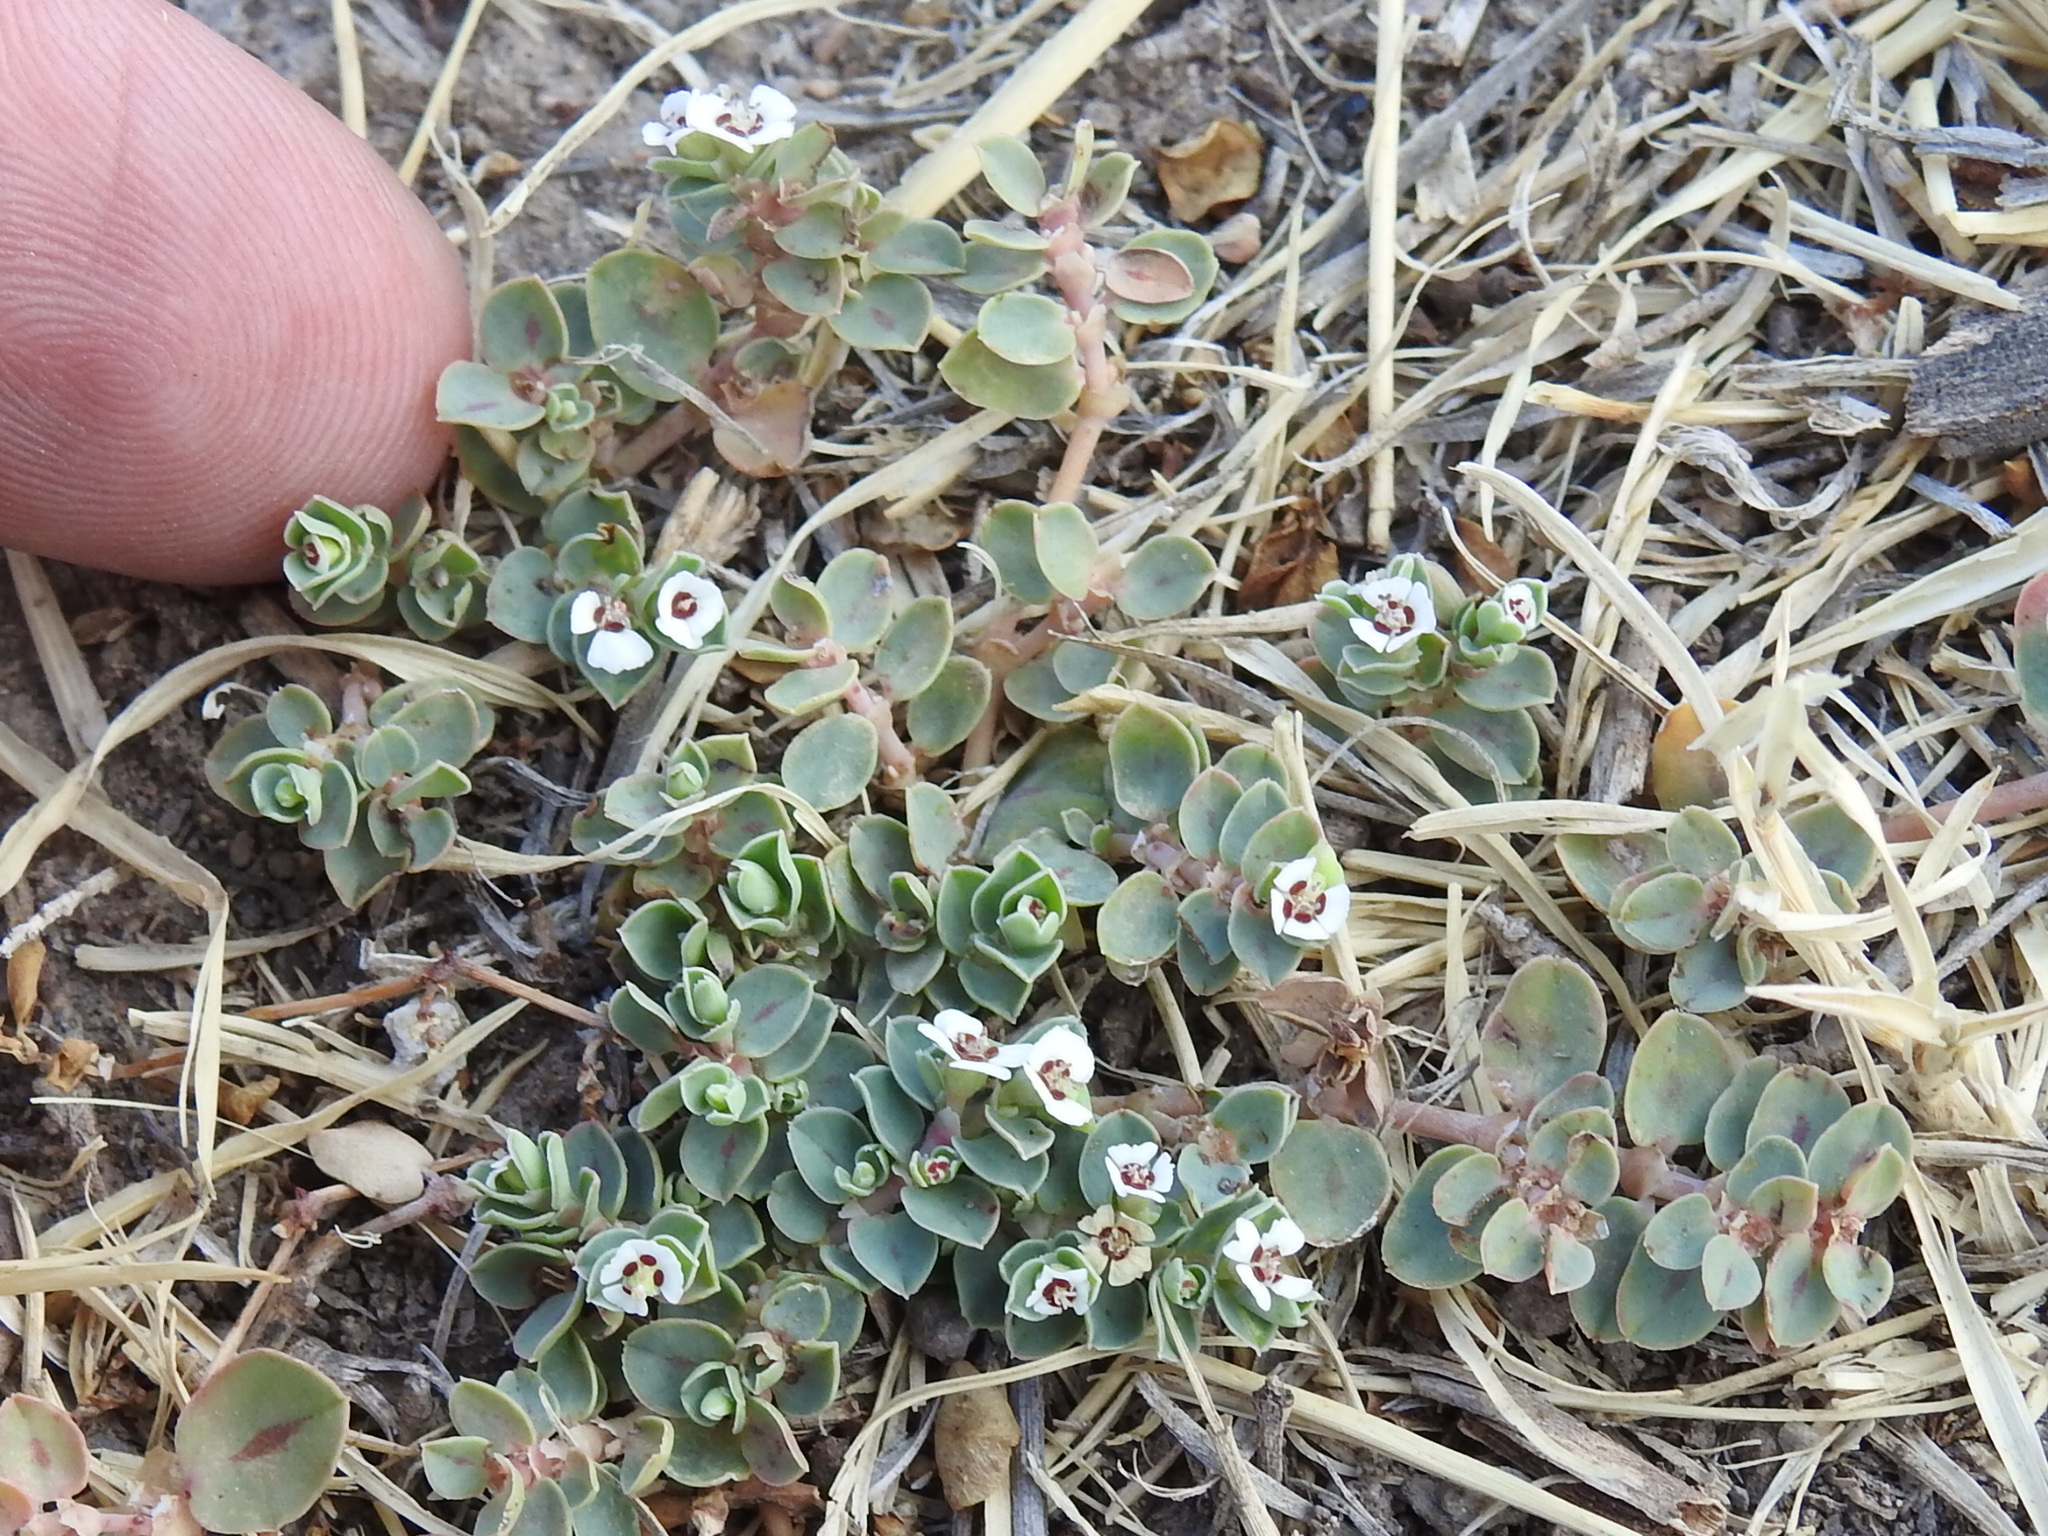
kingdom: Plantae
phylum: Tracheophyta
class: Magnoliopsida
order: Malpighiales
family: Euphorbiaceae
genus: Euphorbia
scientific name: Euphorbia albomarginata
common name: Whitemargin sandmat
